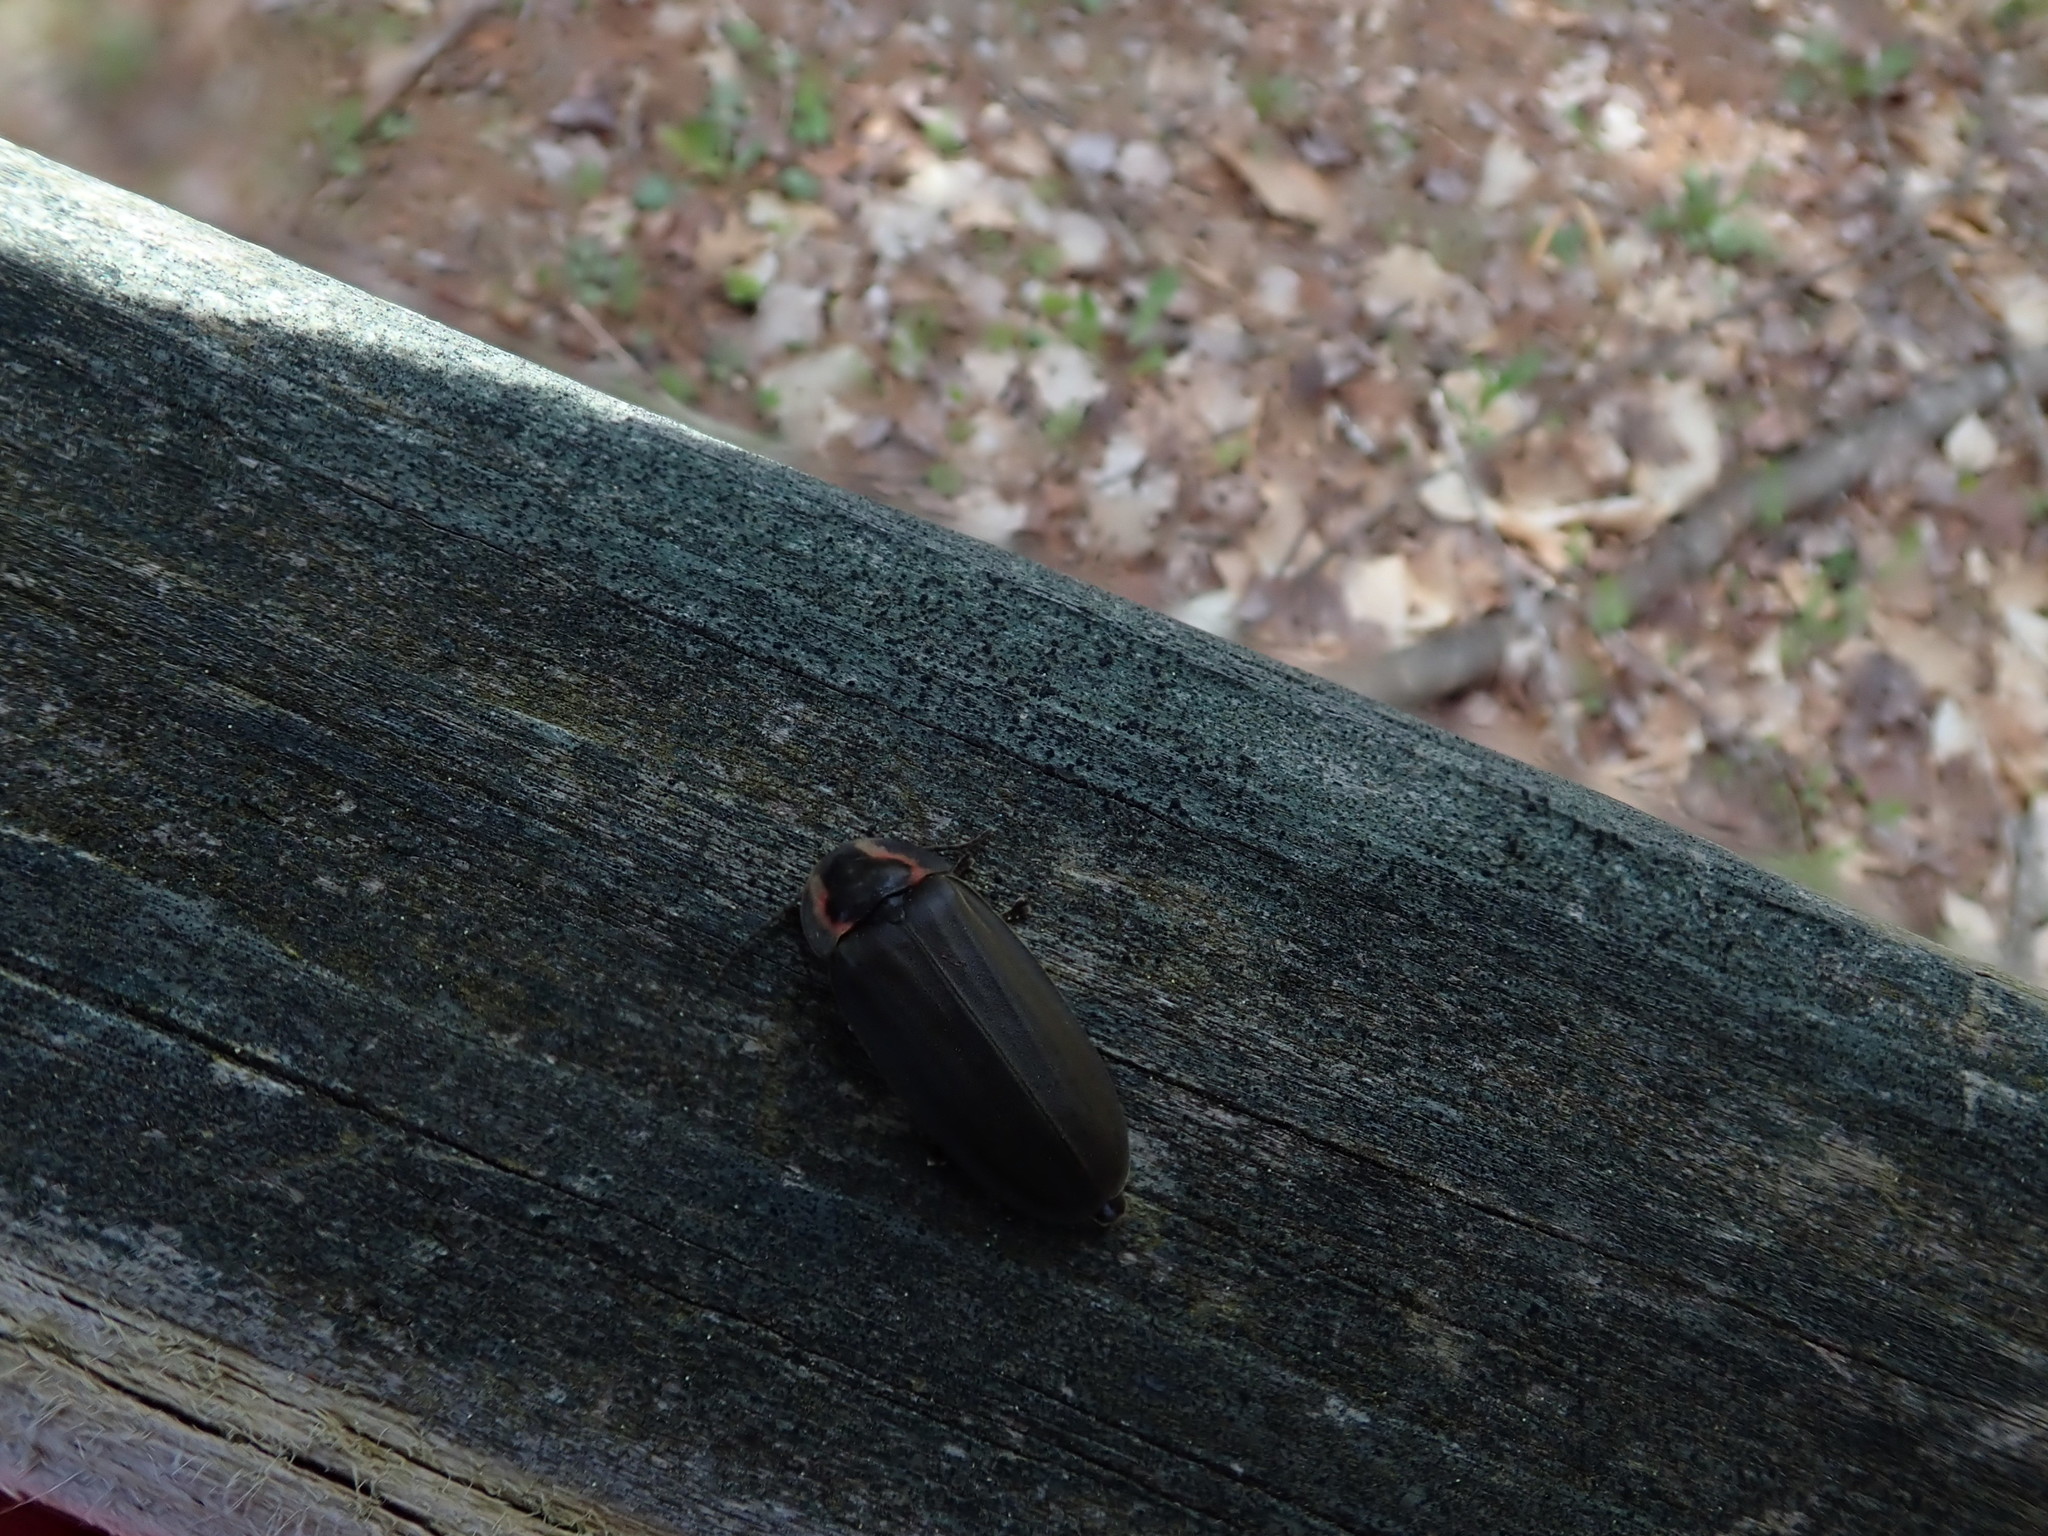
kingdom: Animalia
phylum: Arthropoda
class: Insecta
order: Coleoptera
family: Lampyridae
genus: Photinus
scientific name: Photinus corrusca
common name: Winter firefly
